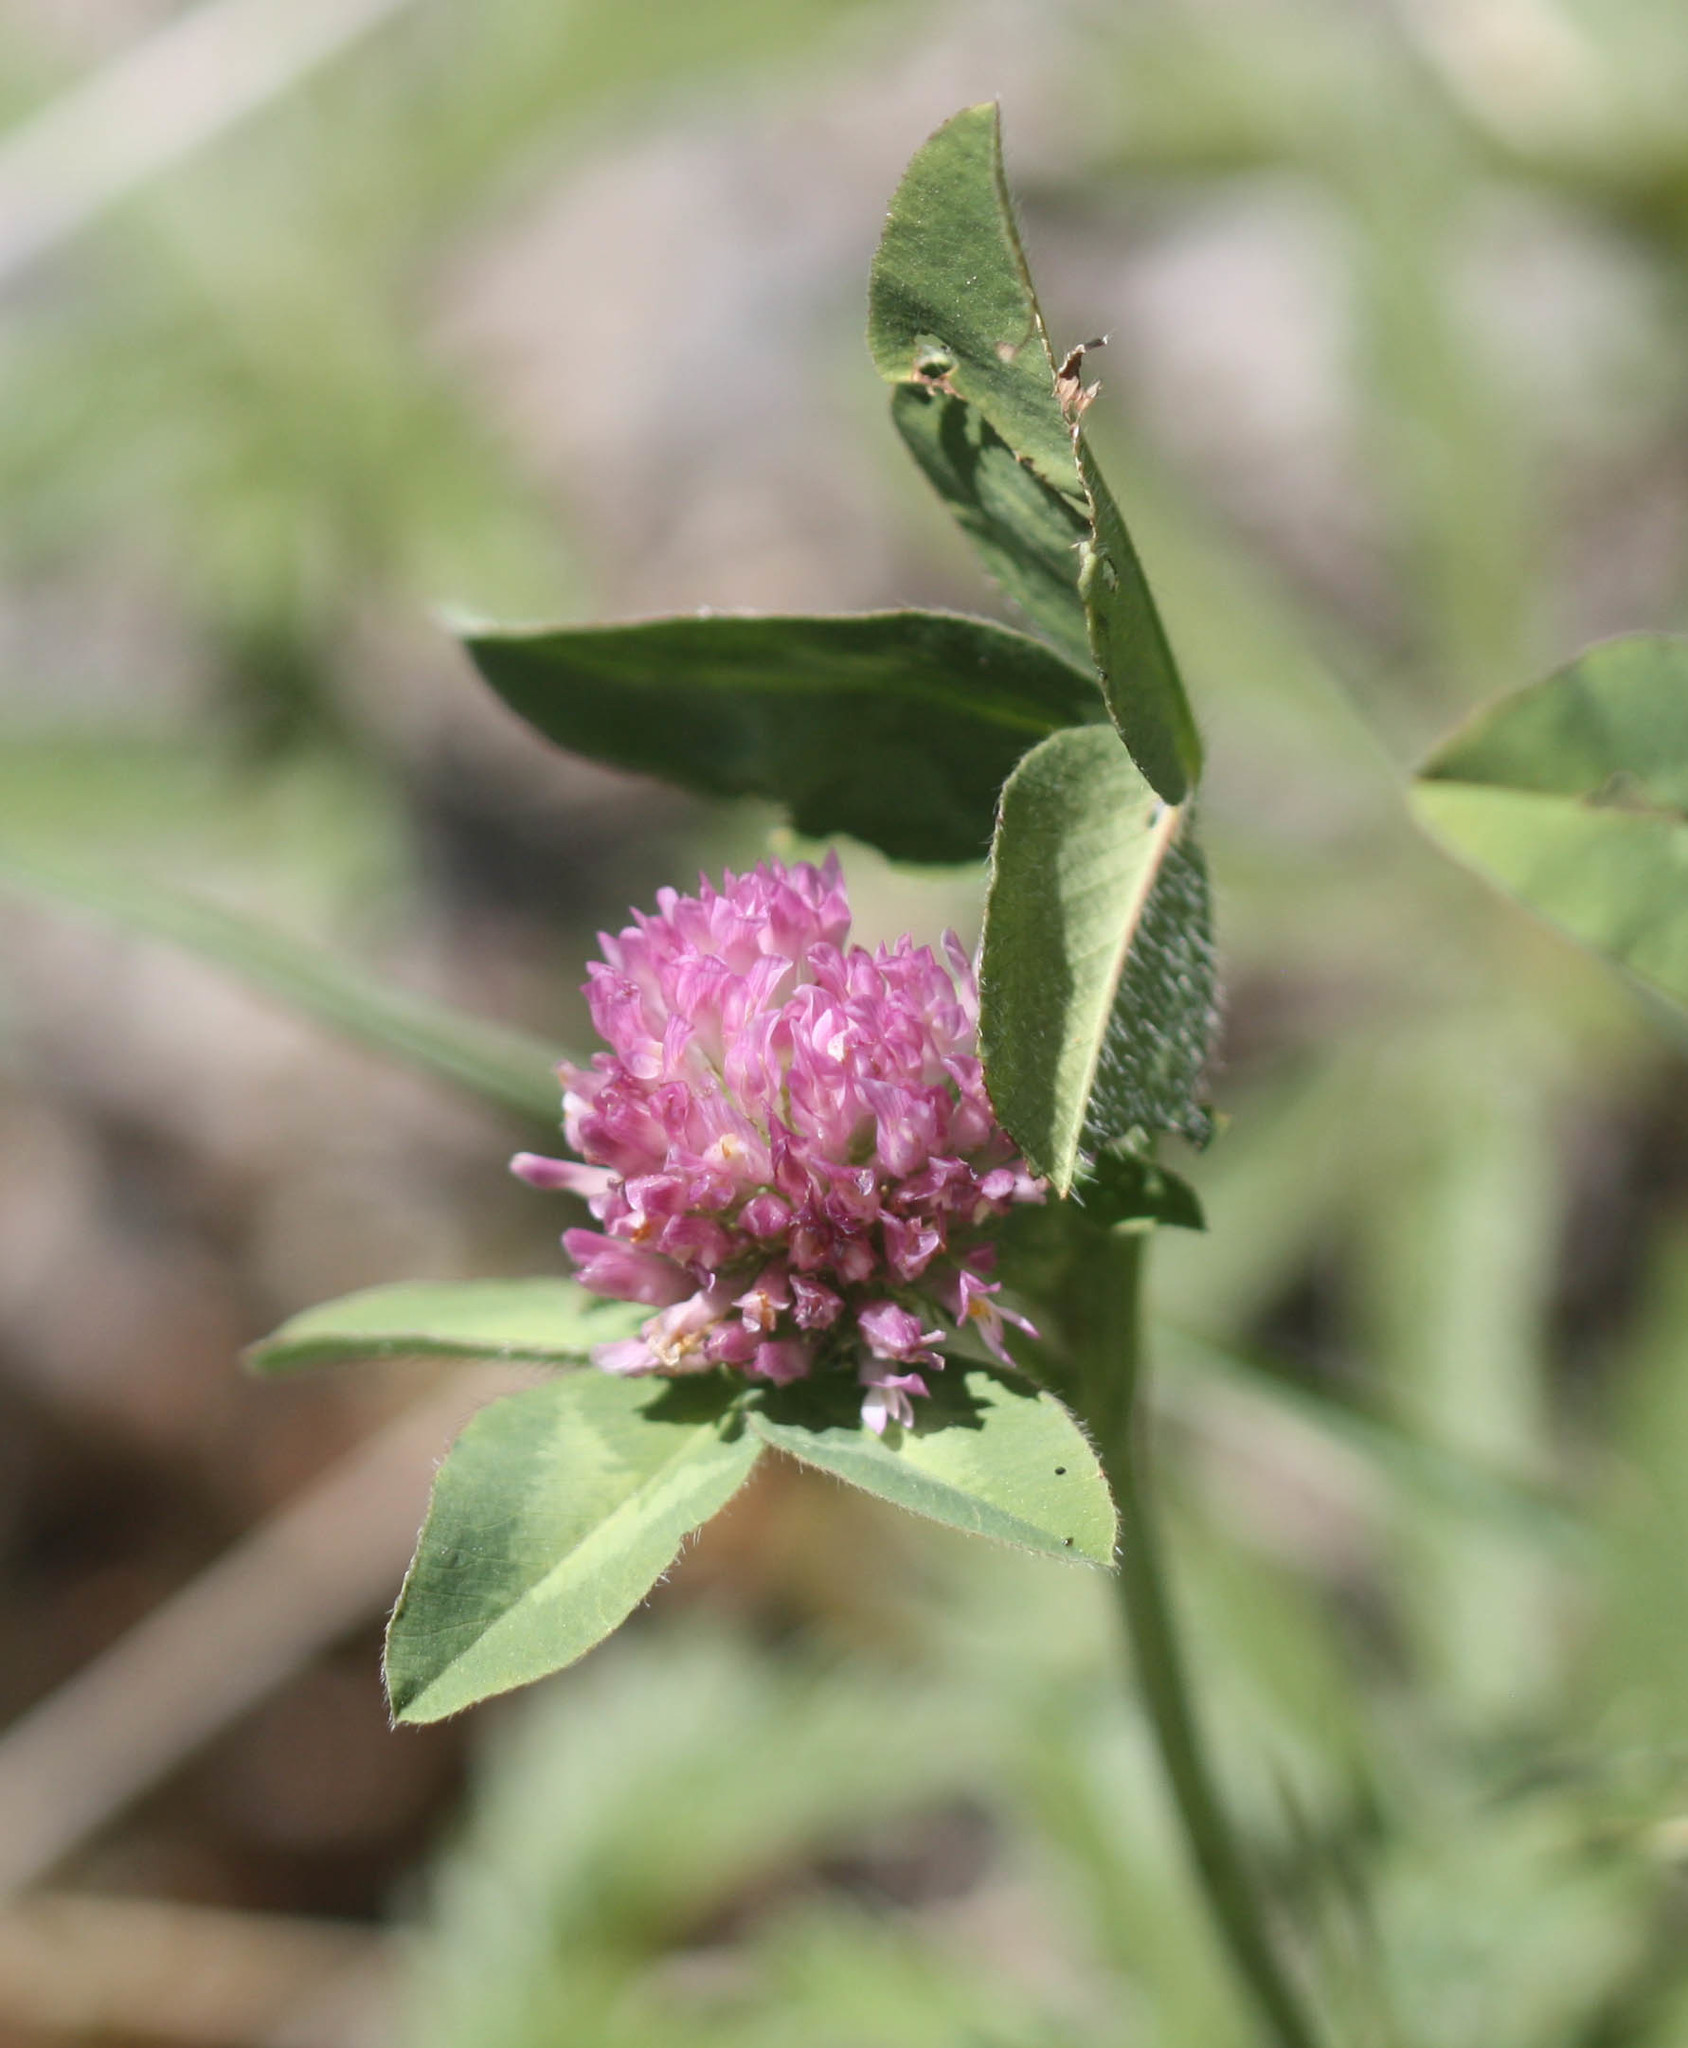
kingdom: Plantae
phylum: Tracheophyta
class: Magnoliopsida
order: Fabales
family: Fabaceae
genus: Trifolium
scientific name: Trifolium pratense
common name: Red clover
